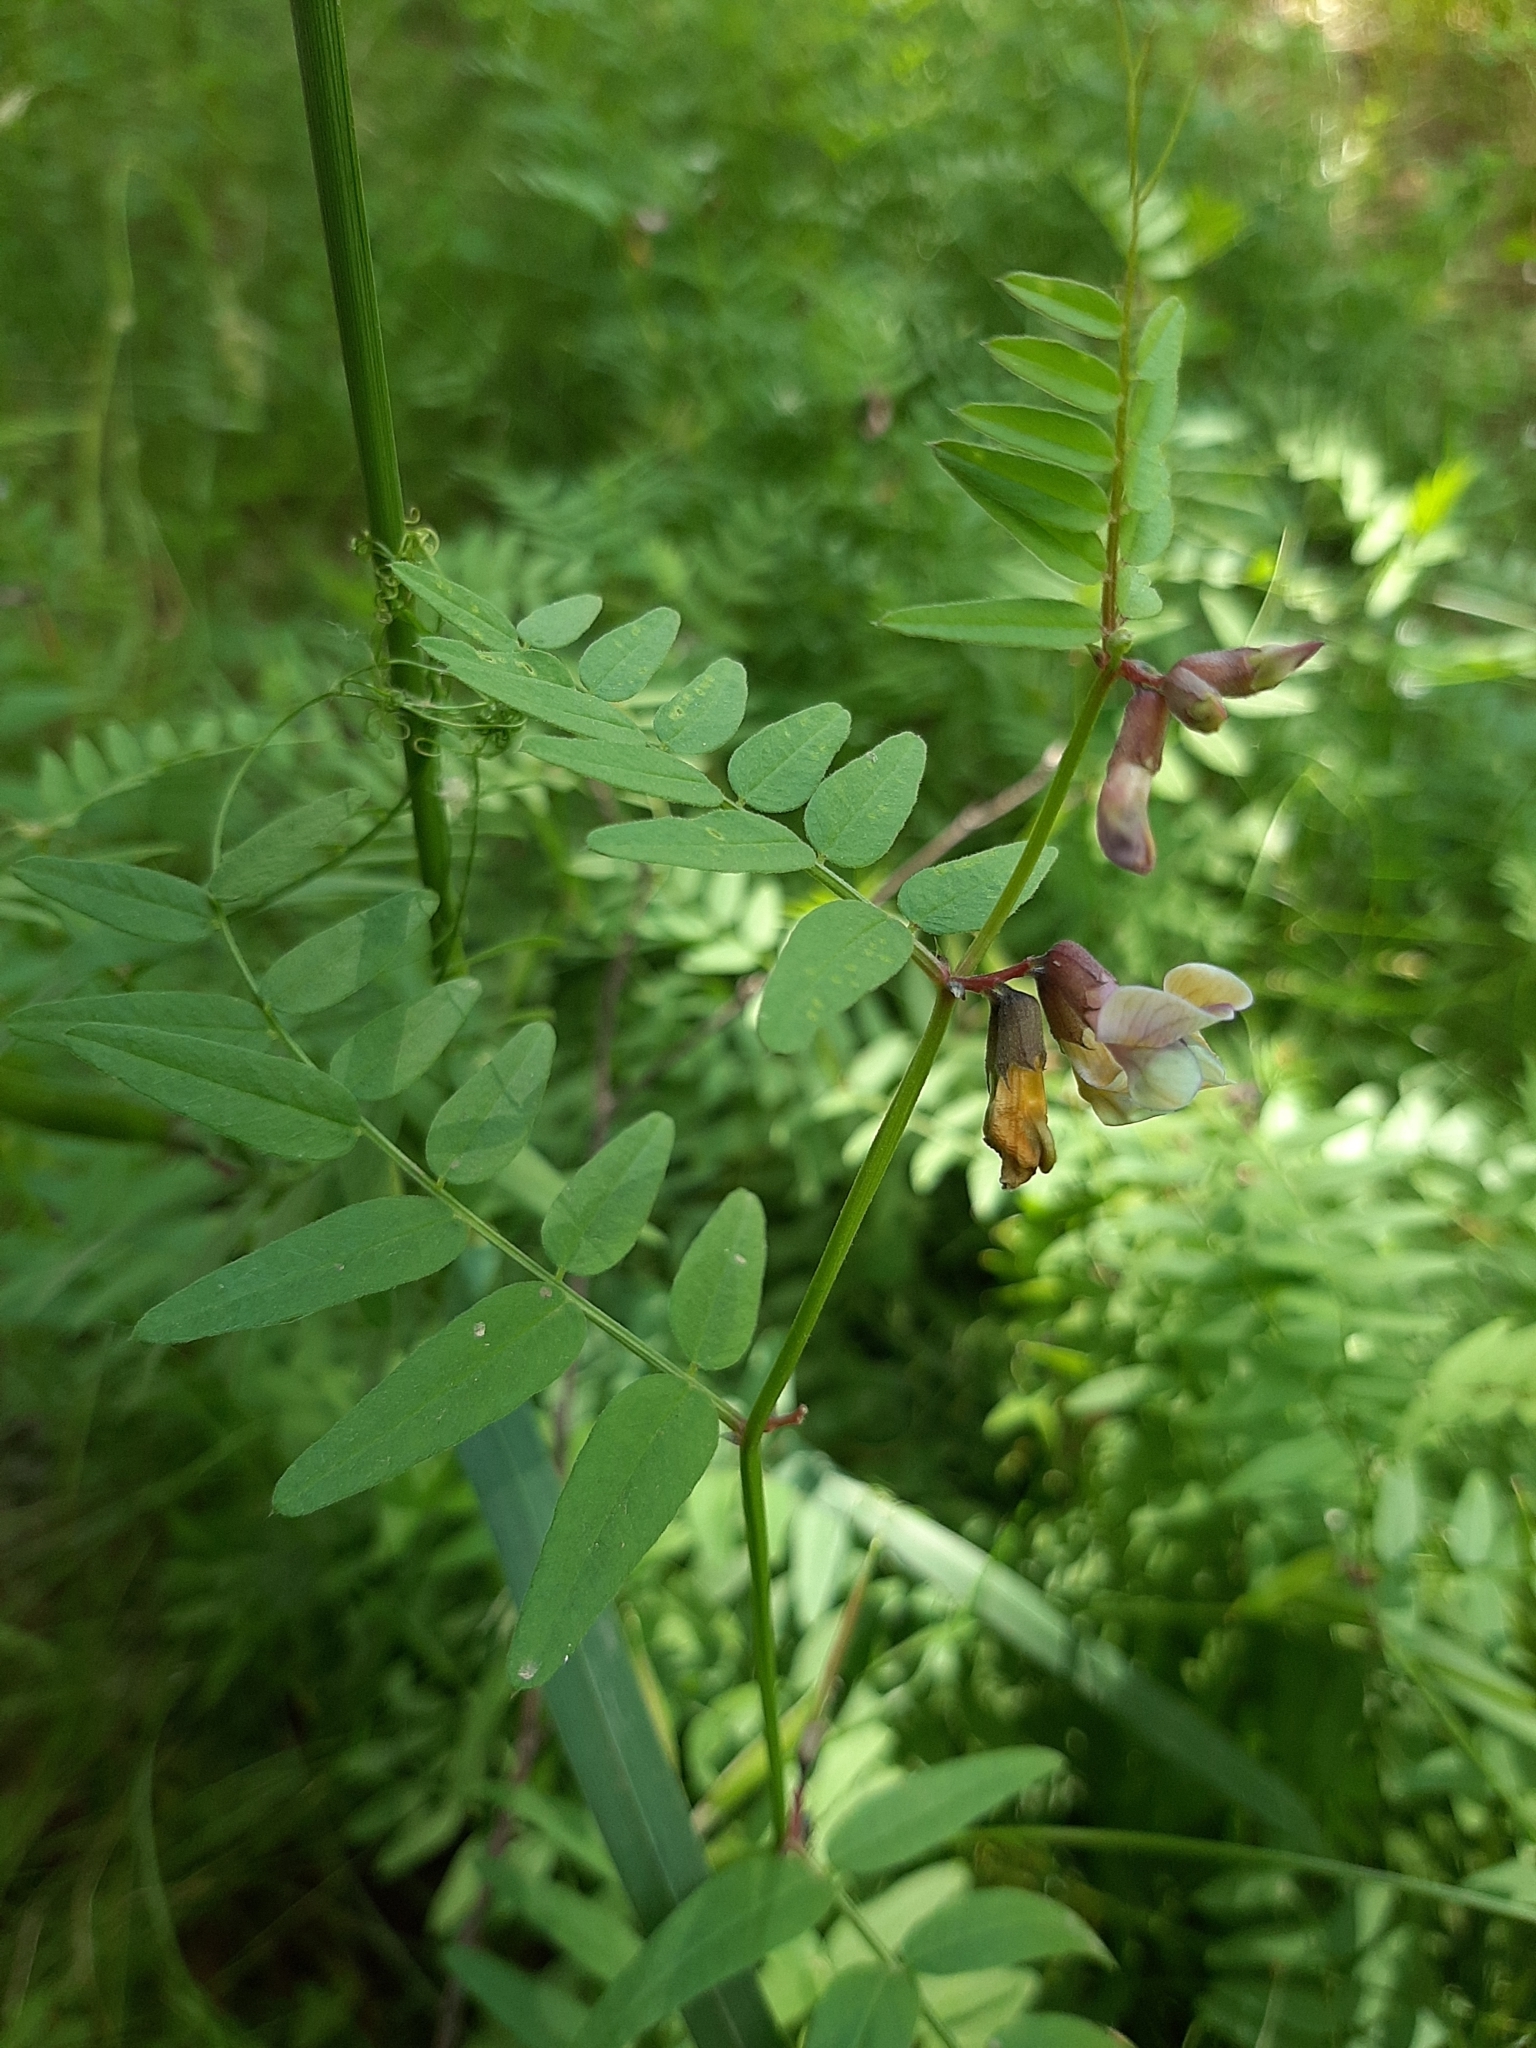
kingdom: Plantae
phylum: Tracheophyta
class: Magnoliopsida
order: Fabales
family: Fabaceae
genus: Vicia
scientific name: Vicia sepium
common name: Bush vetch
